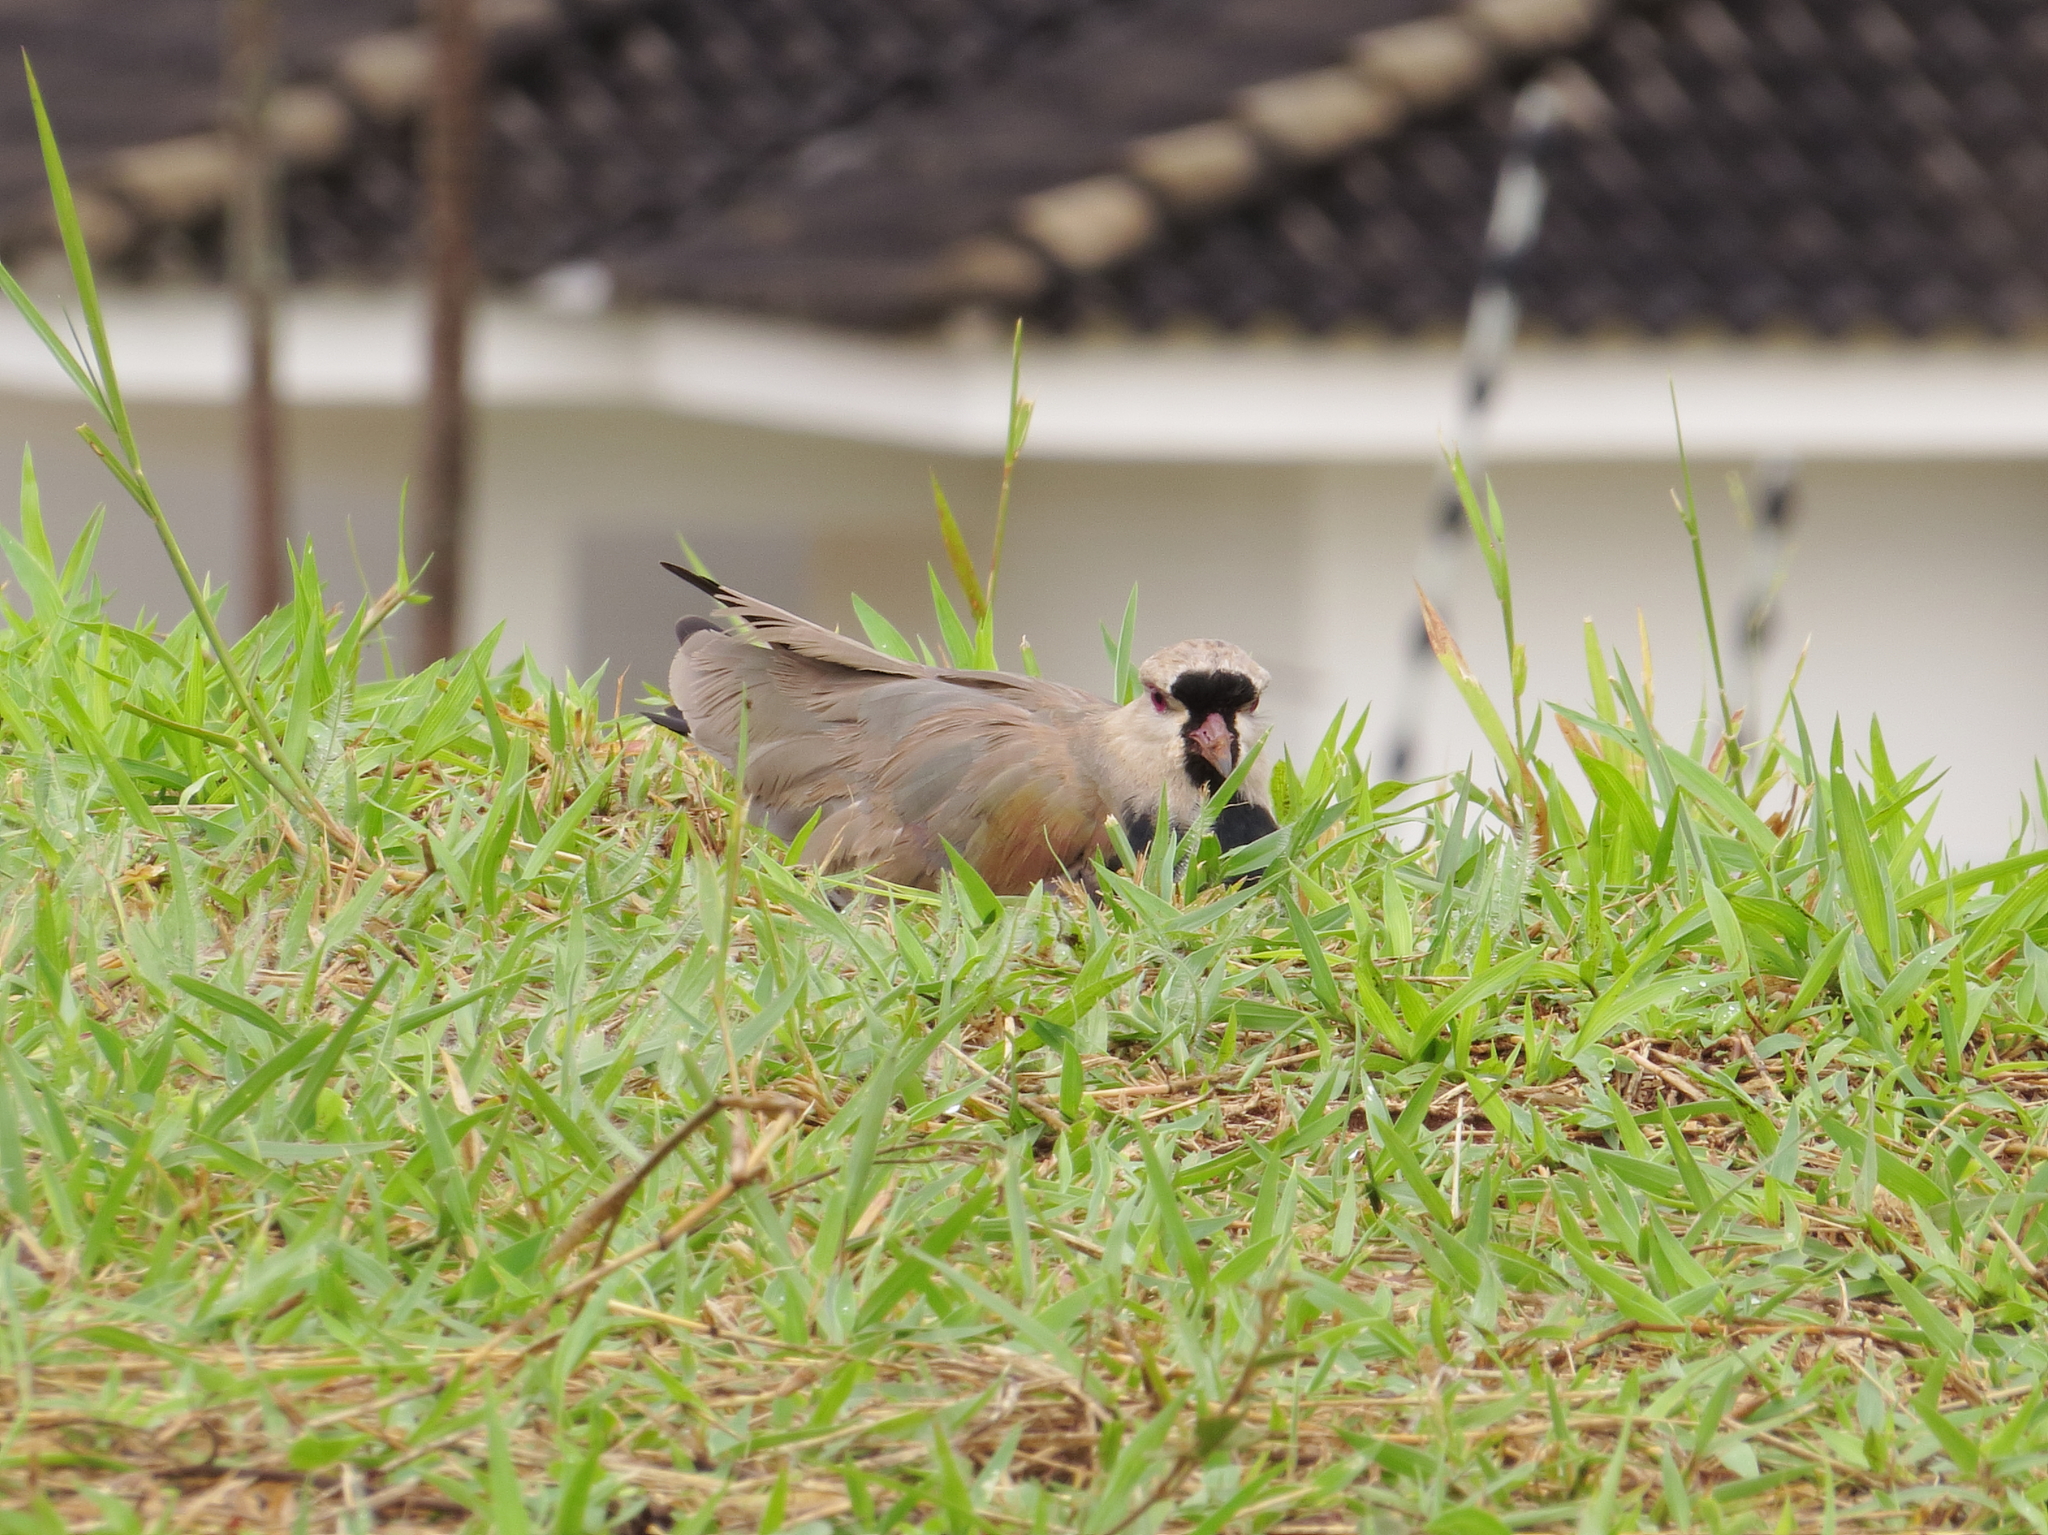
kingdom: Animalia
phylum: Chordata
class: Aves
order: Charadriiformes
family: Charadriidae
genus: Vanellus
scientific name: Vanellus chilensis
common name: Southern lapwing
